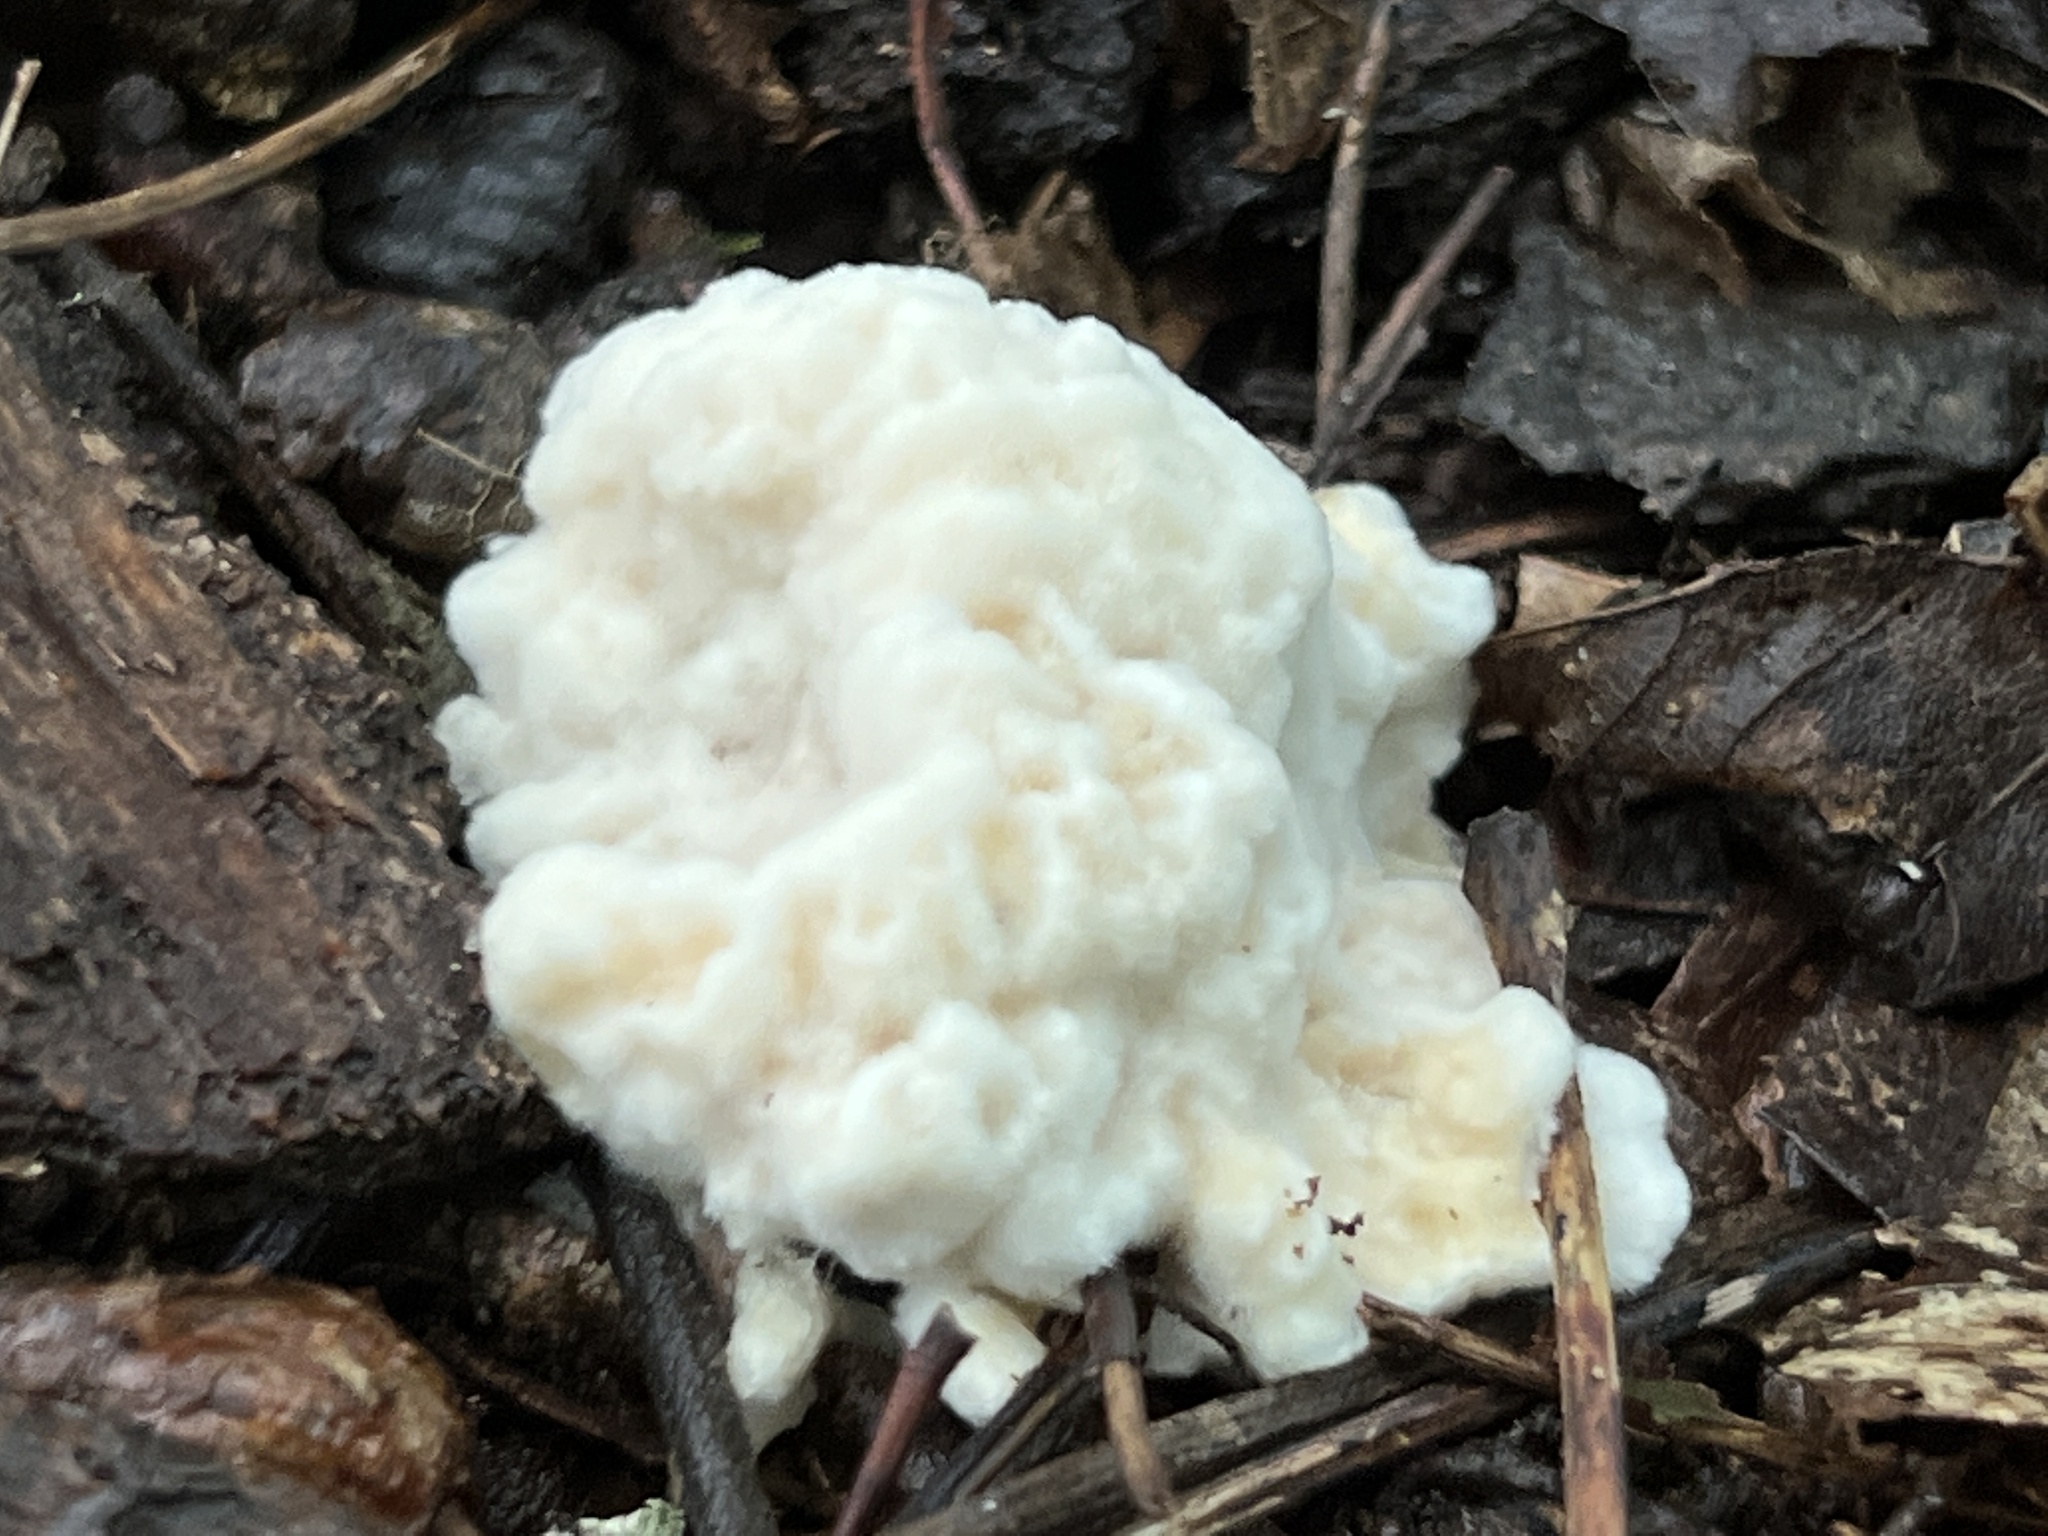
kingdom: Fungi
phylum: Basidiomycota
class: Agaricomycetes
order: Polyporales
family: Sparassidaceae
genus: Sparassis
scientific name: Sparassis spathulata
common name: Eastern cauliflower mushroom
